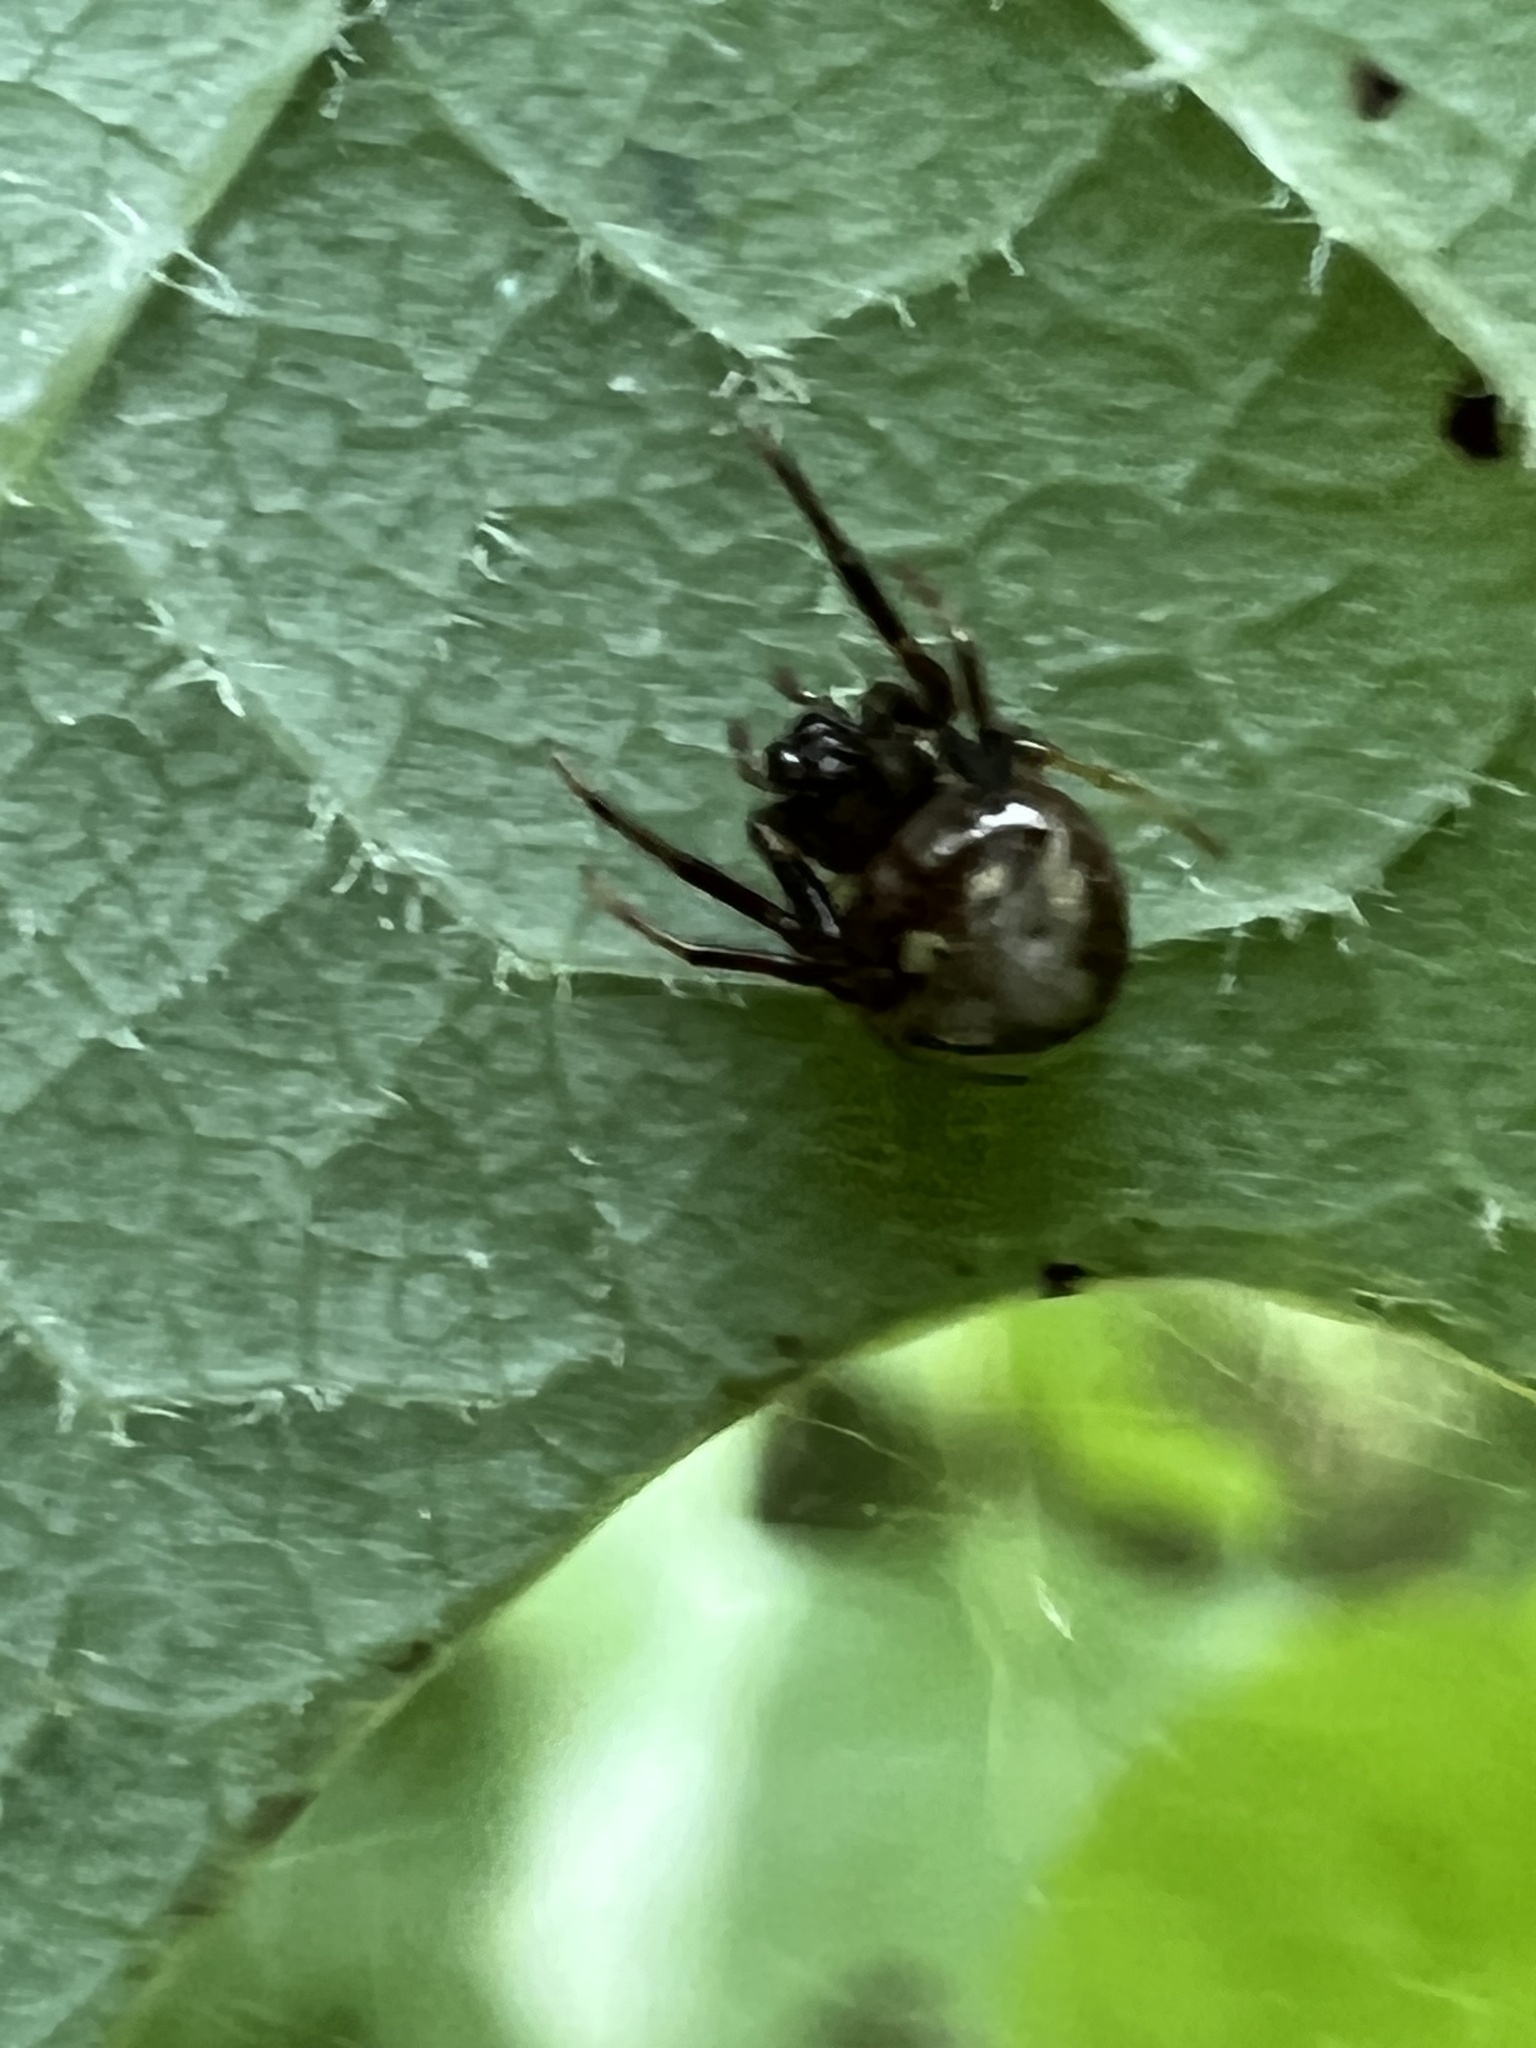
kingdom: Animalia
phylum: Arthropoda
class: Arachnida
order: Araneae
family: Araneidae
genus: Verrucosa
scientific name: Verrucosa arenata
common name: Orb weavers
